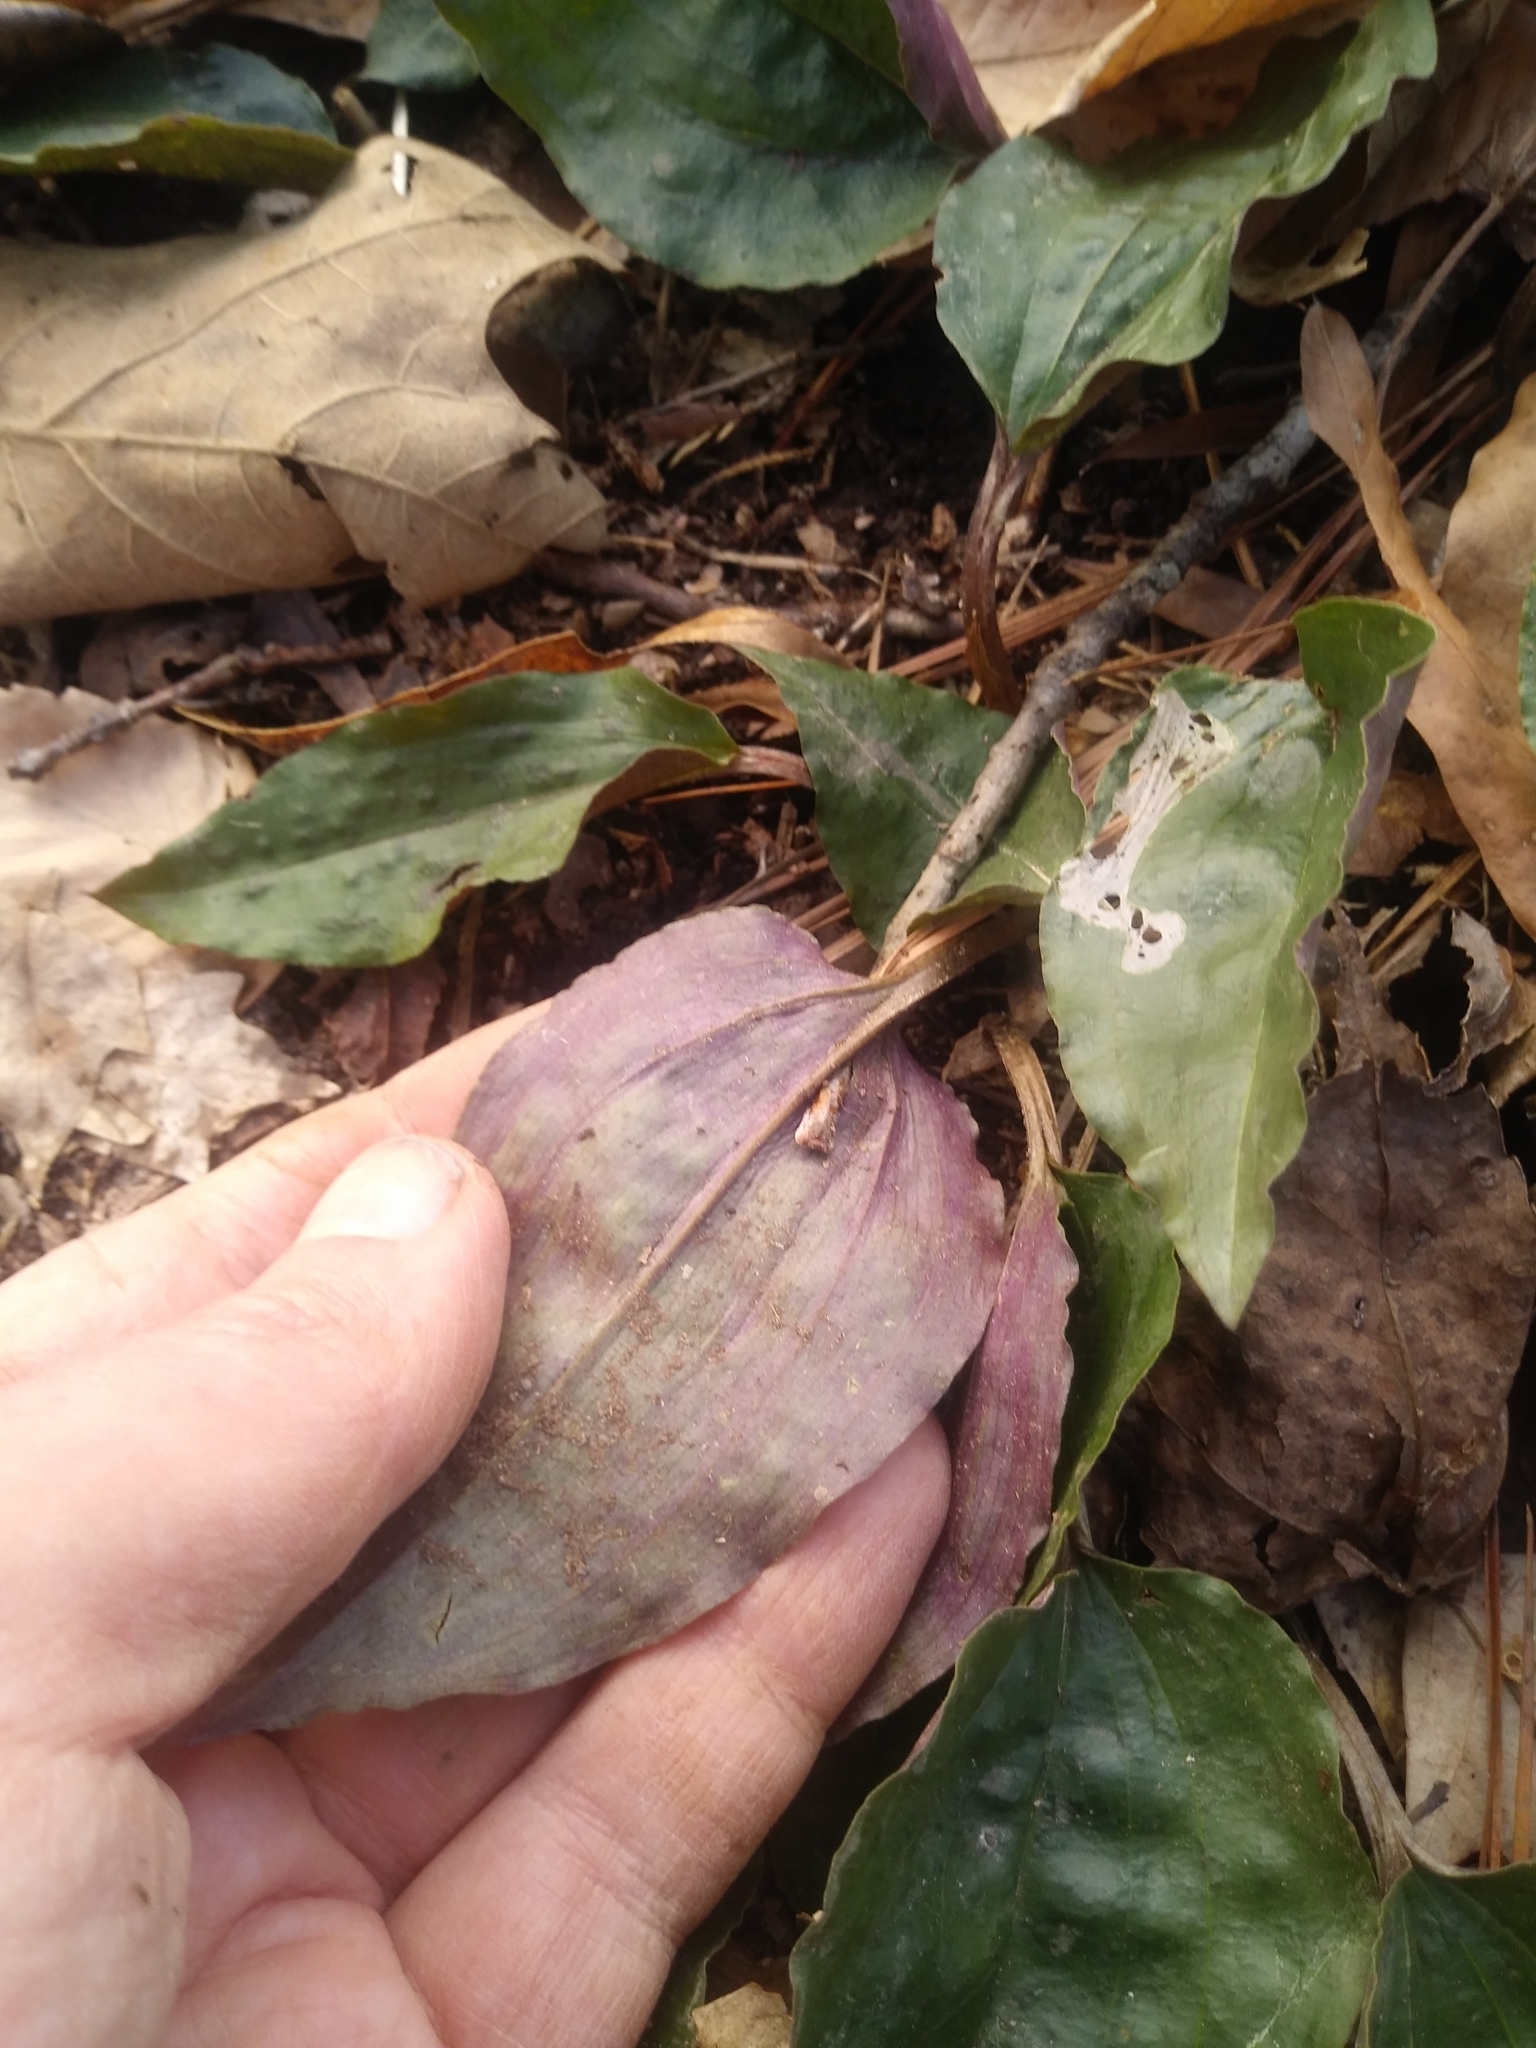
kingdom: Plantae
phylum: Tracheophyta
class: Liliopsida
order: Asparagales
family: Orchidaceae
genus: Tipularia
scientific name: Tipularia discolor
